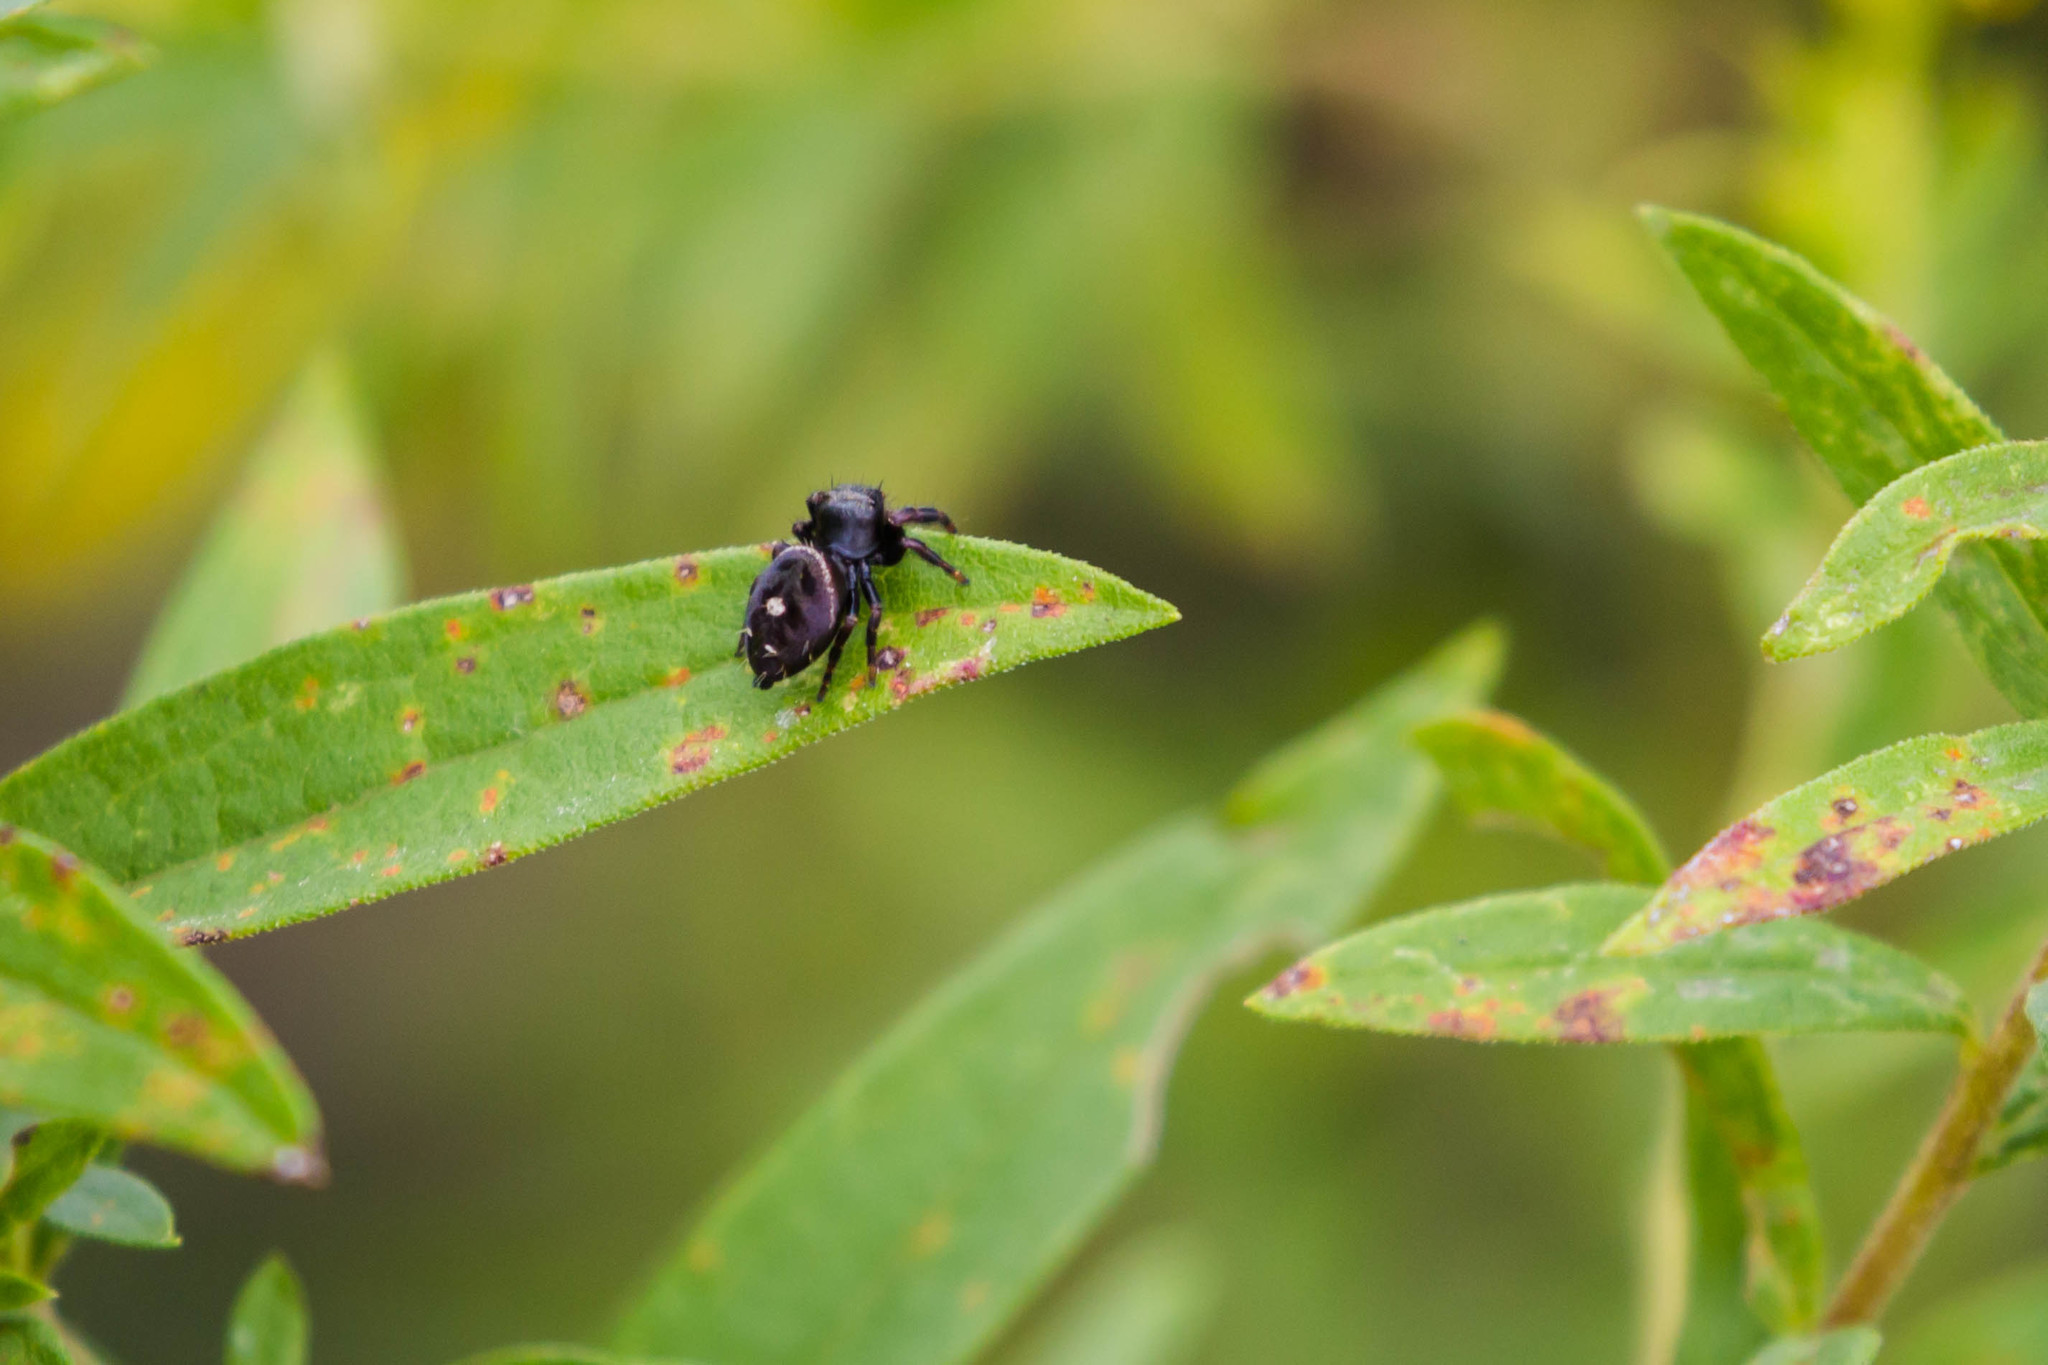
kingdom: Animalia
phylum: Arthropoda
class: Arachnida
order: Araneae
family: Salticidae
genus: Phidippus
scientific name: Phidippus audax
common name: Bold jumper
